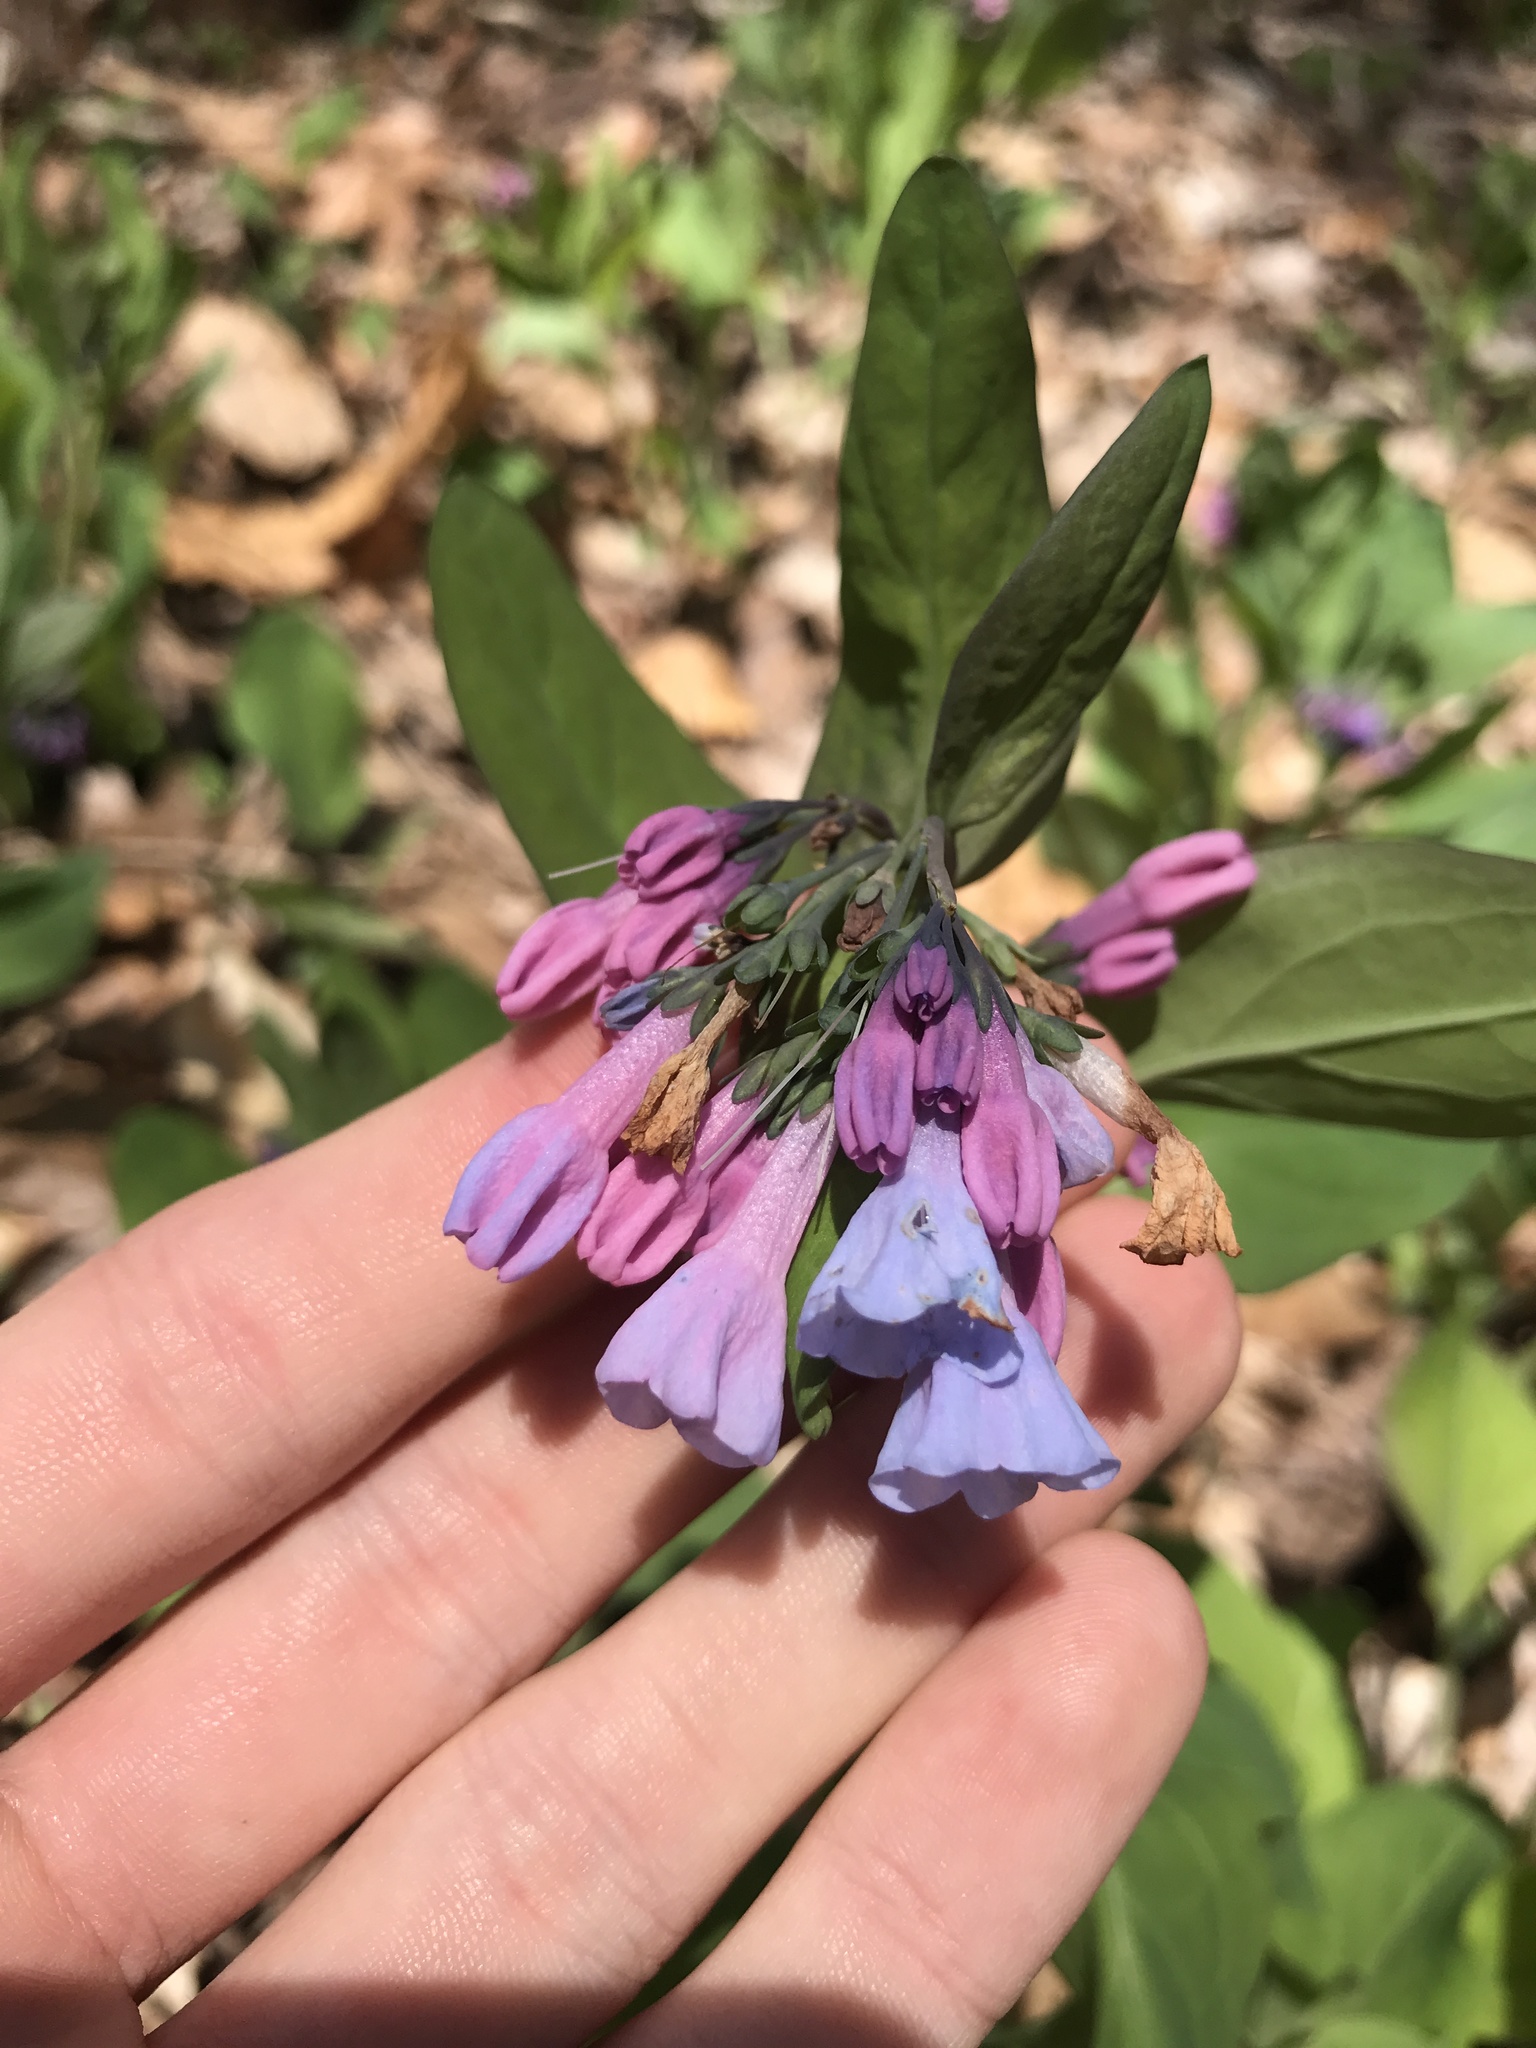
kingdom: Plantae
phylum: Tracheophyta
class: Magnoliopsida
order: Boraginales
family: Boraginaceae
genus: Mertensia
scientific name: Mertensia virginica
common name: Virginia bluebells
